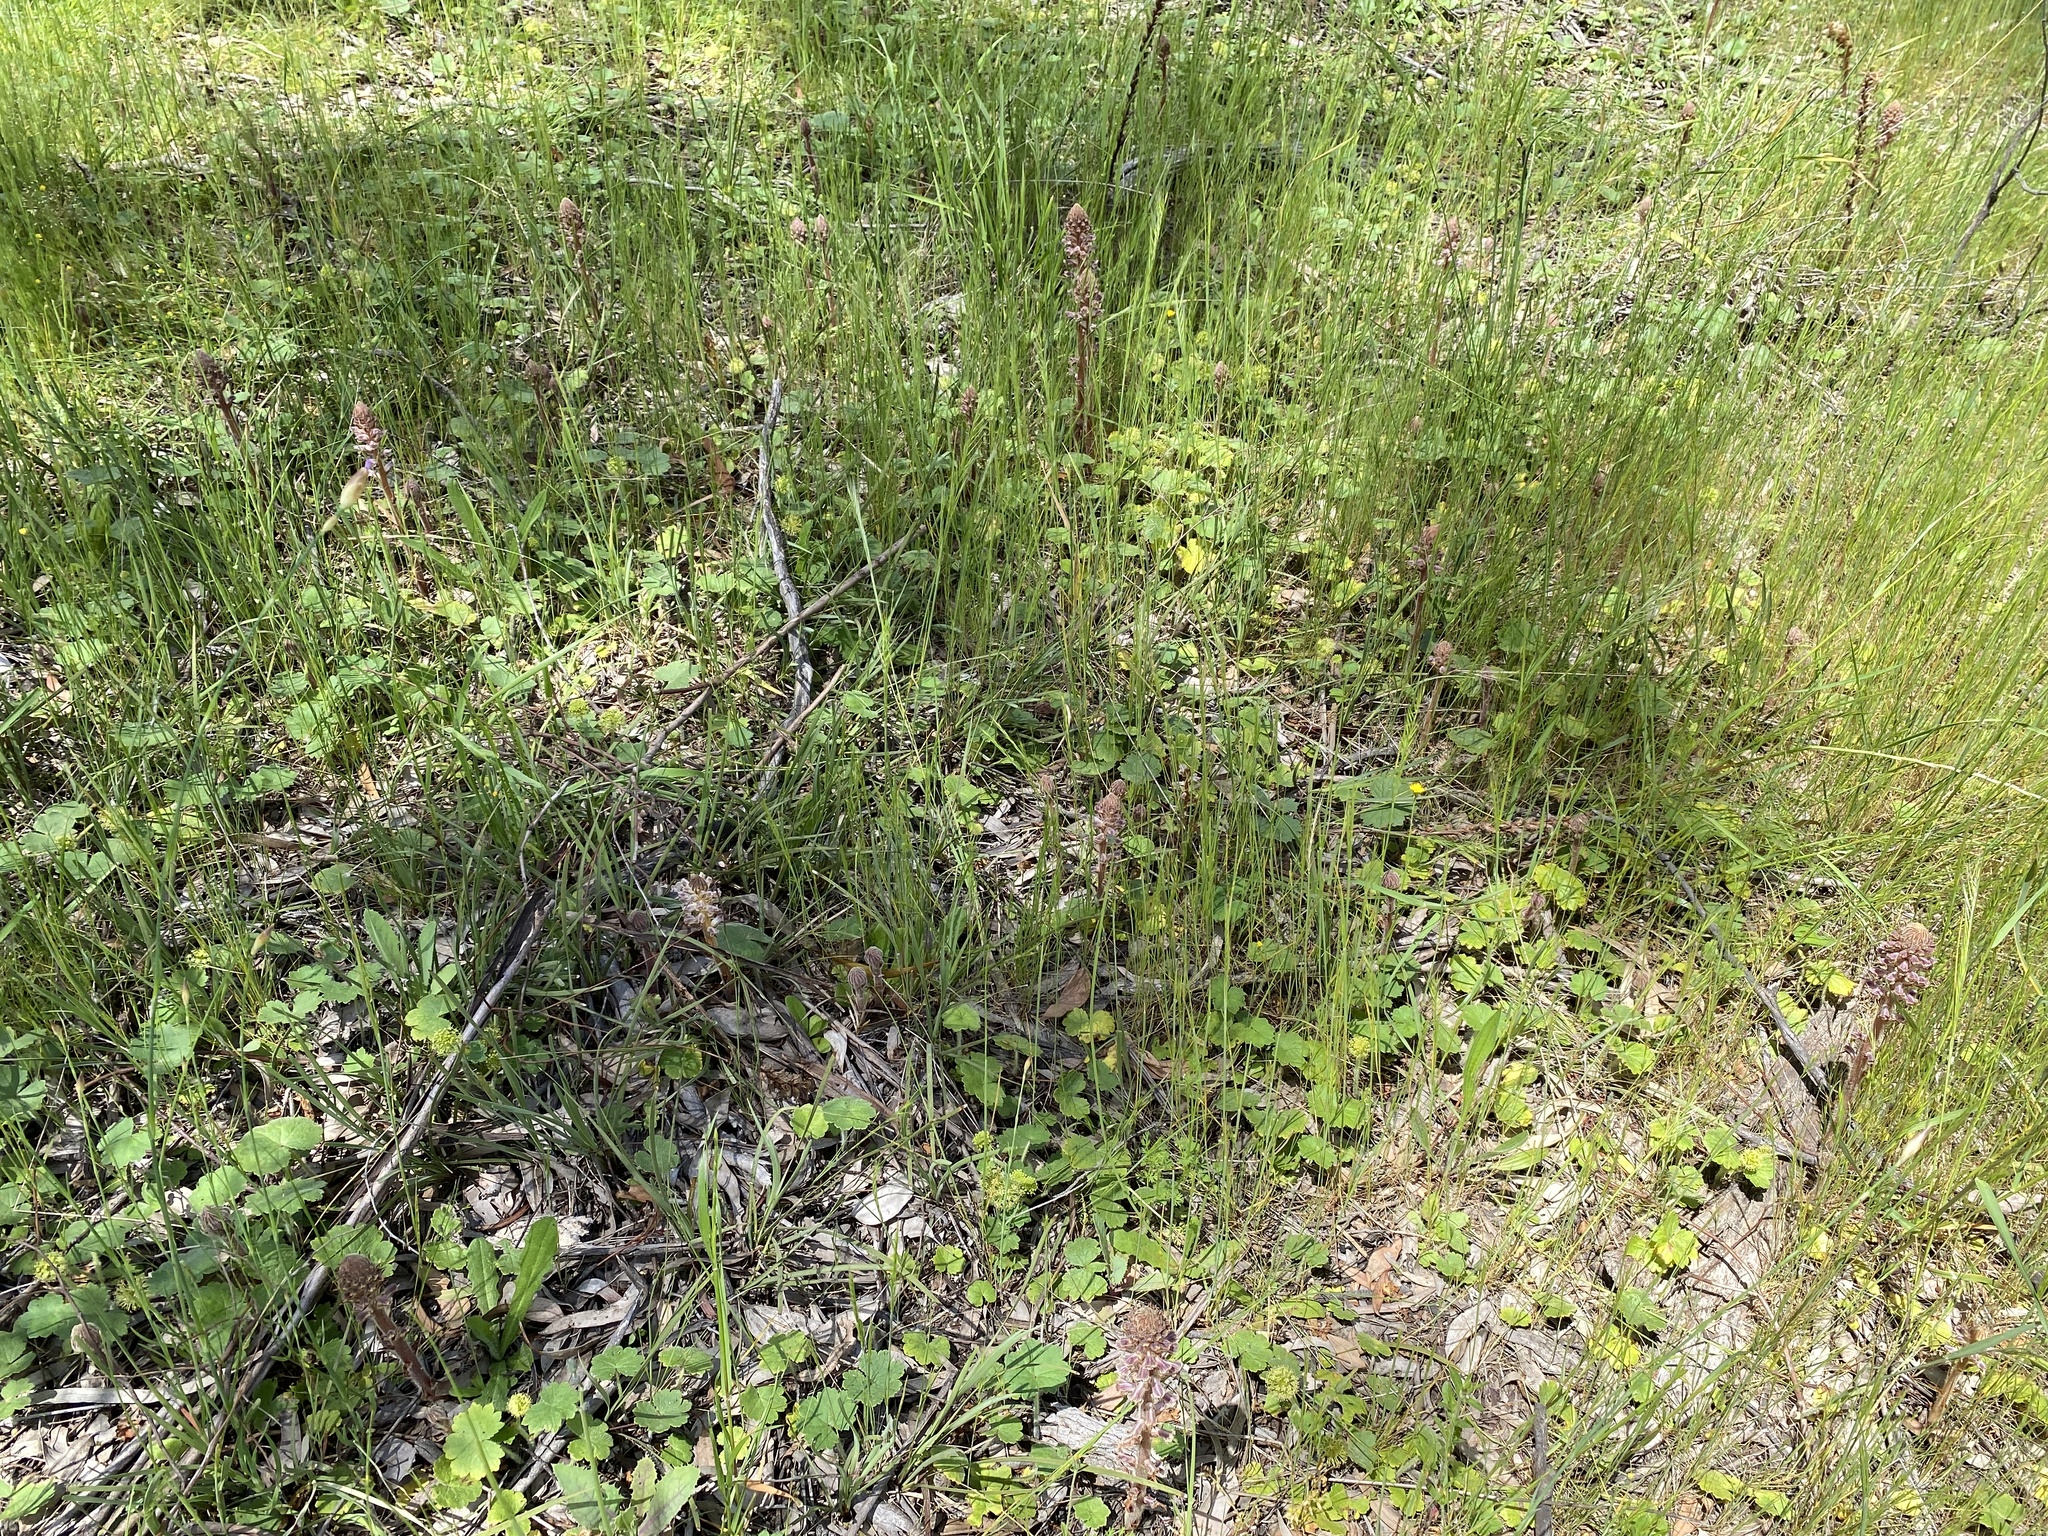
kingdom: Plantae
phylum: Tracheophyta
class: Magnoliopsida
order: Lamiales
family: Orobanchaceae
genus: Orobanche
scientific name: Orobanche minor
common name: Common broomrape
